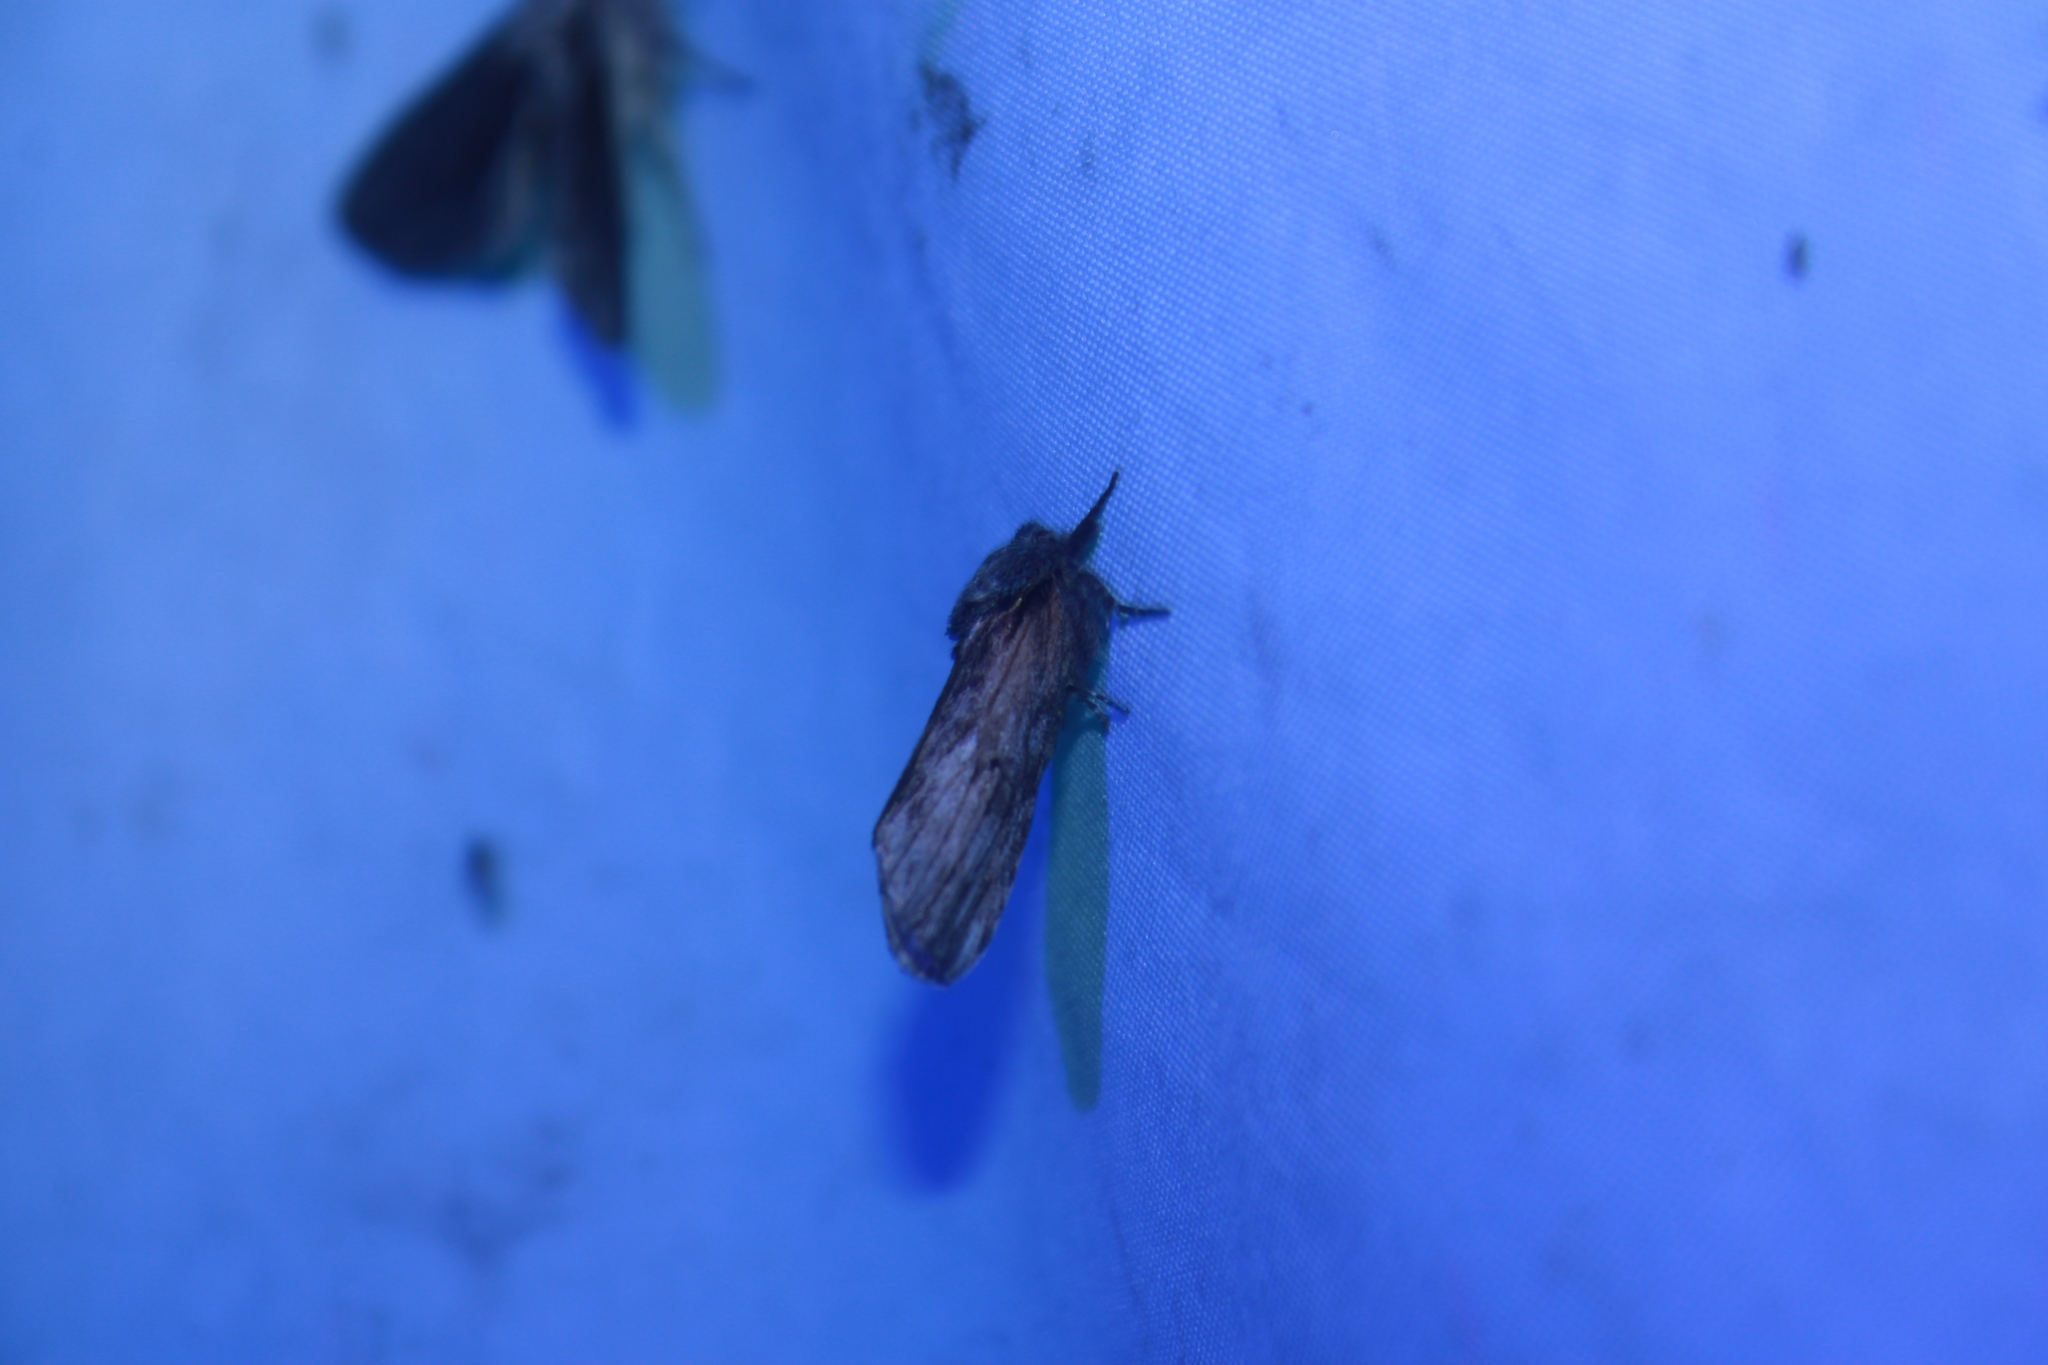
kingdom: Animalia
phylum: Arthropoda
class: Insecta
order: Lepidoptera
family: Notodontidae
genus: Schizura
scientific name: Schizura
